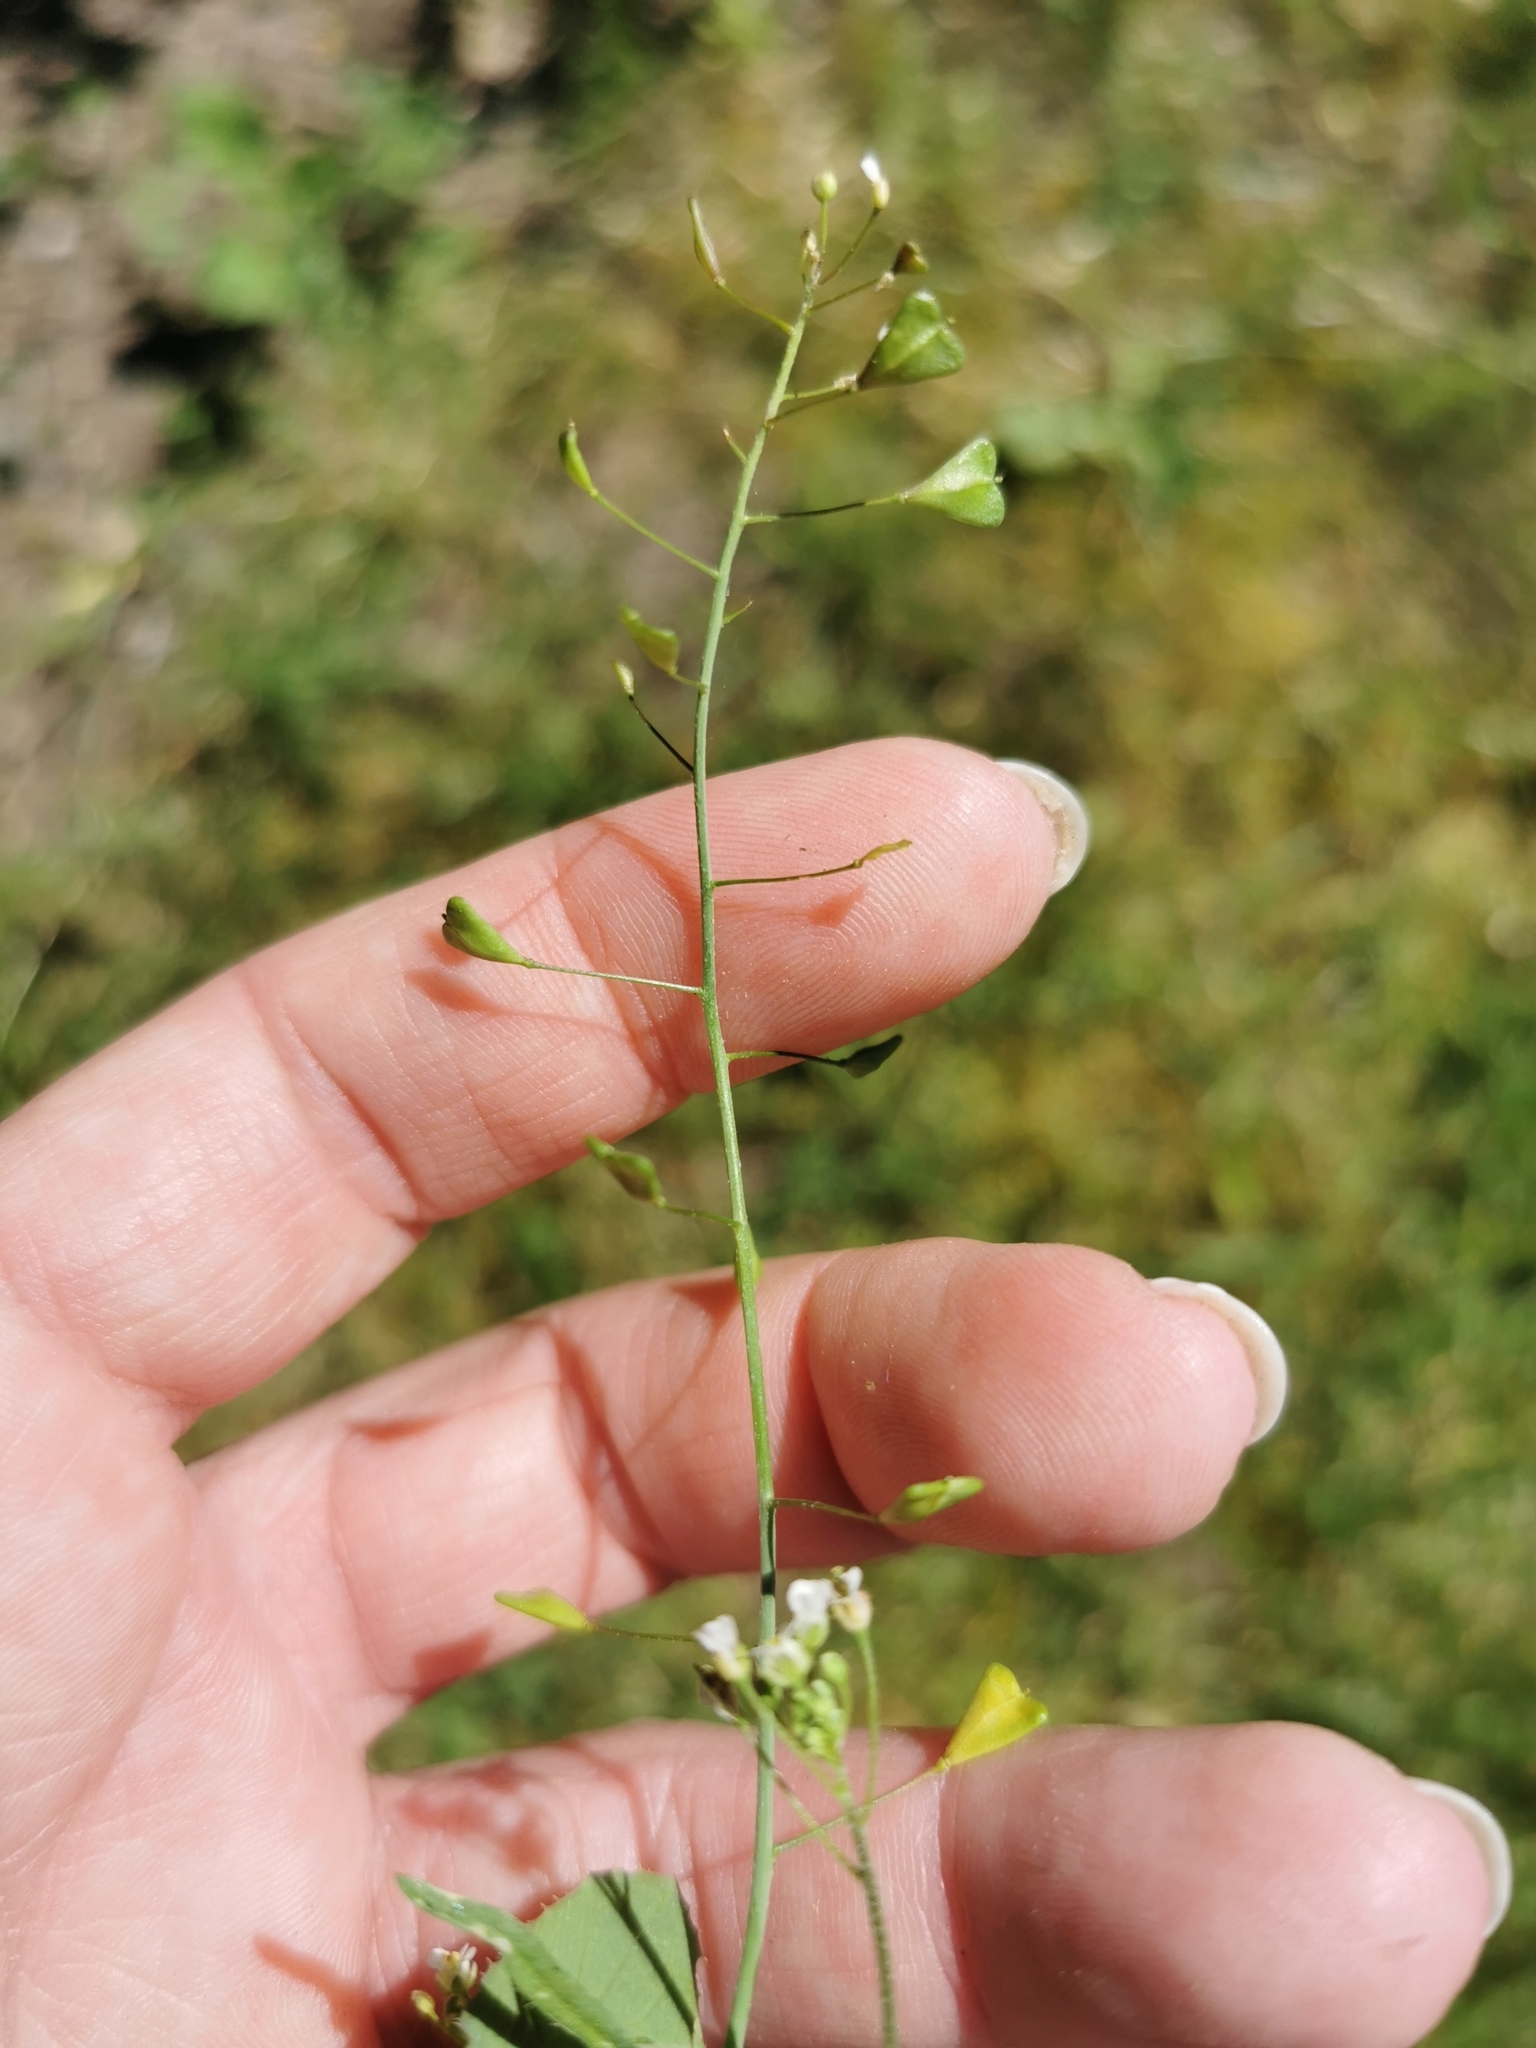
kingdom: Plantae
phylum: Tracheophyta
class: Magnoliopsida
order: Brassicales
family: Brassicaceae
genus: Capsella
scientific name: Capsella bursa-pastoris
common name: Shepherd's purse
